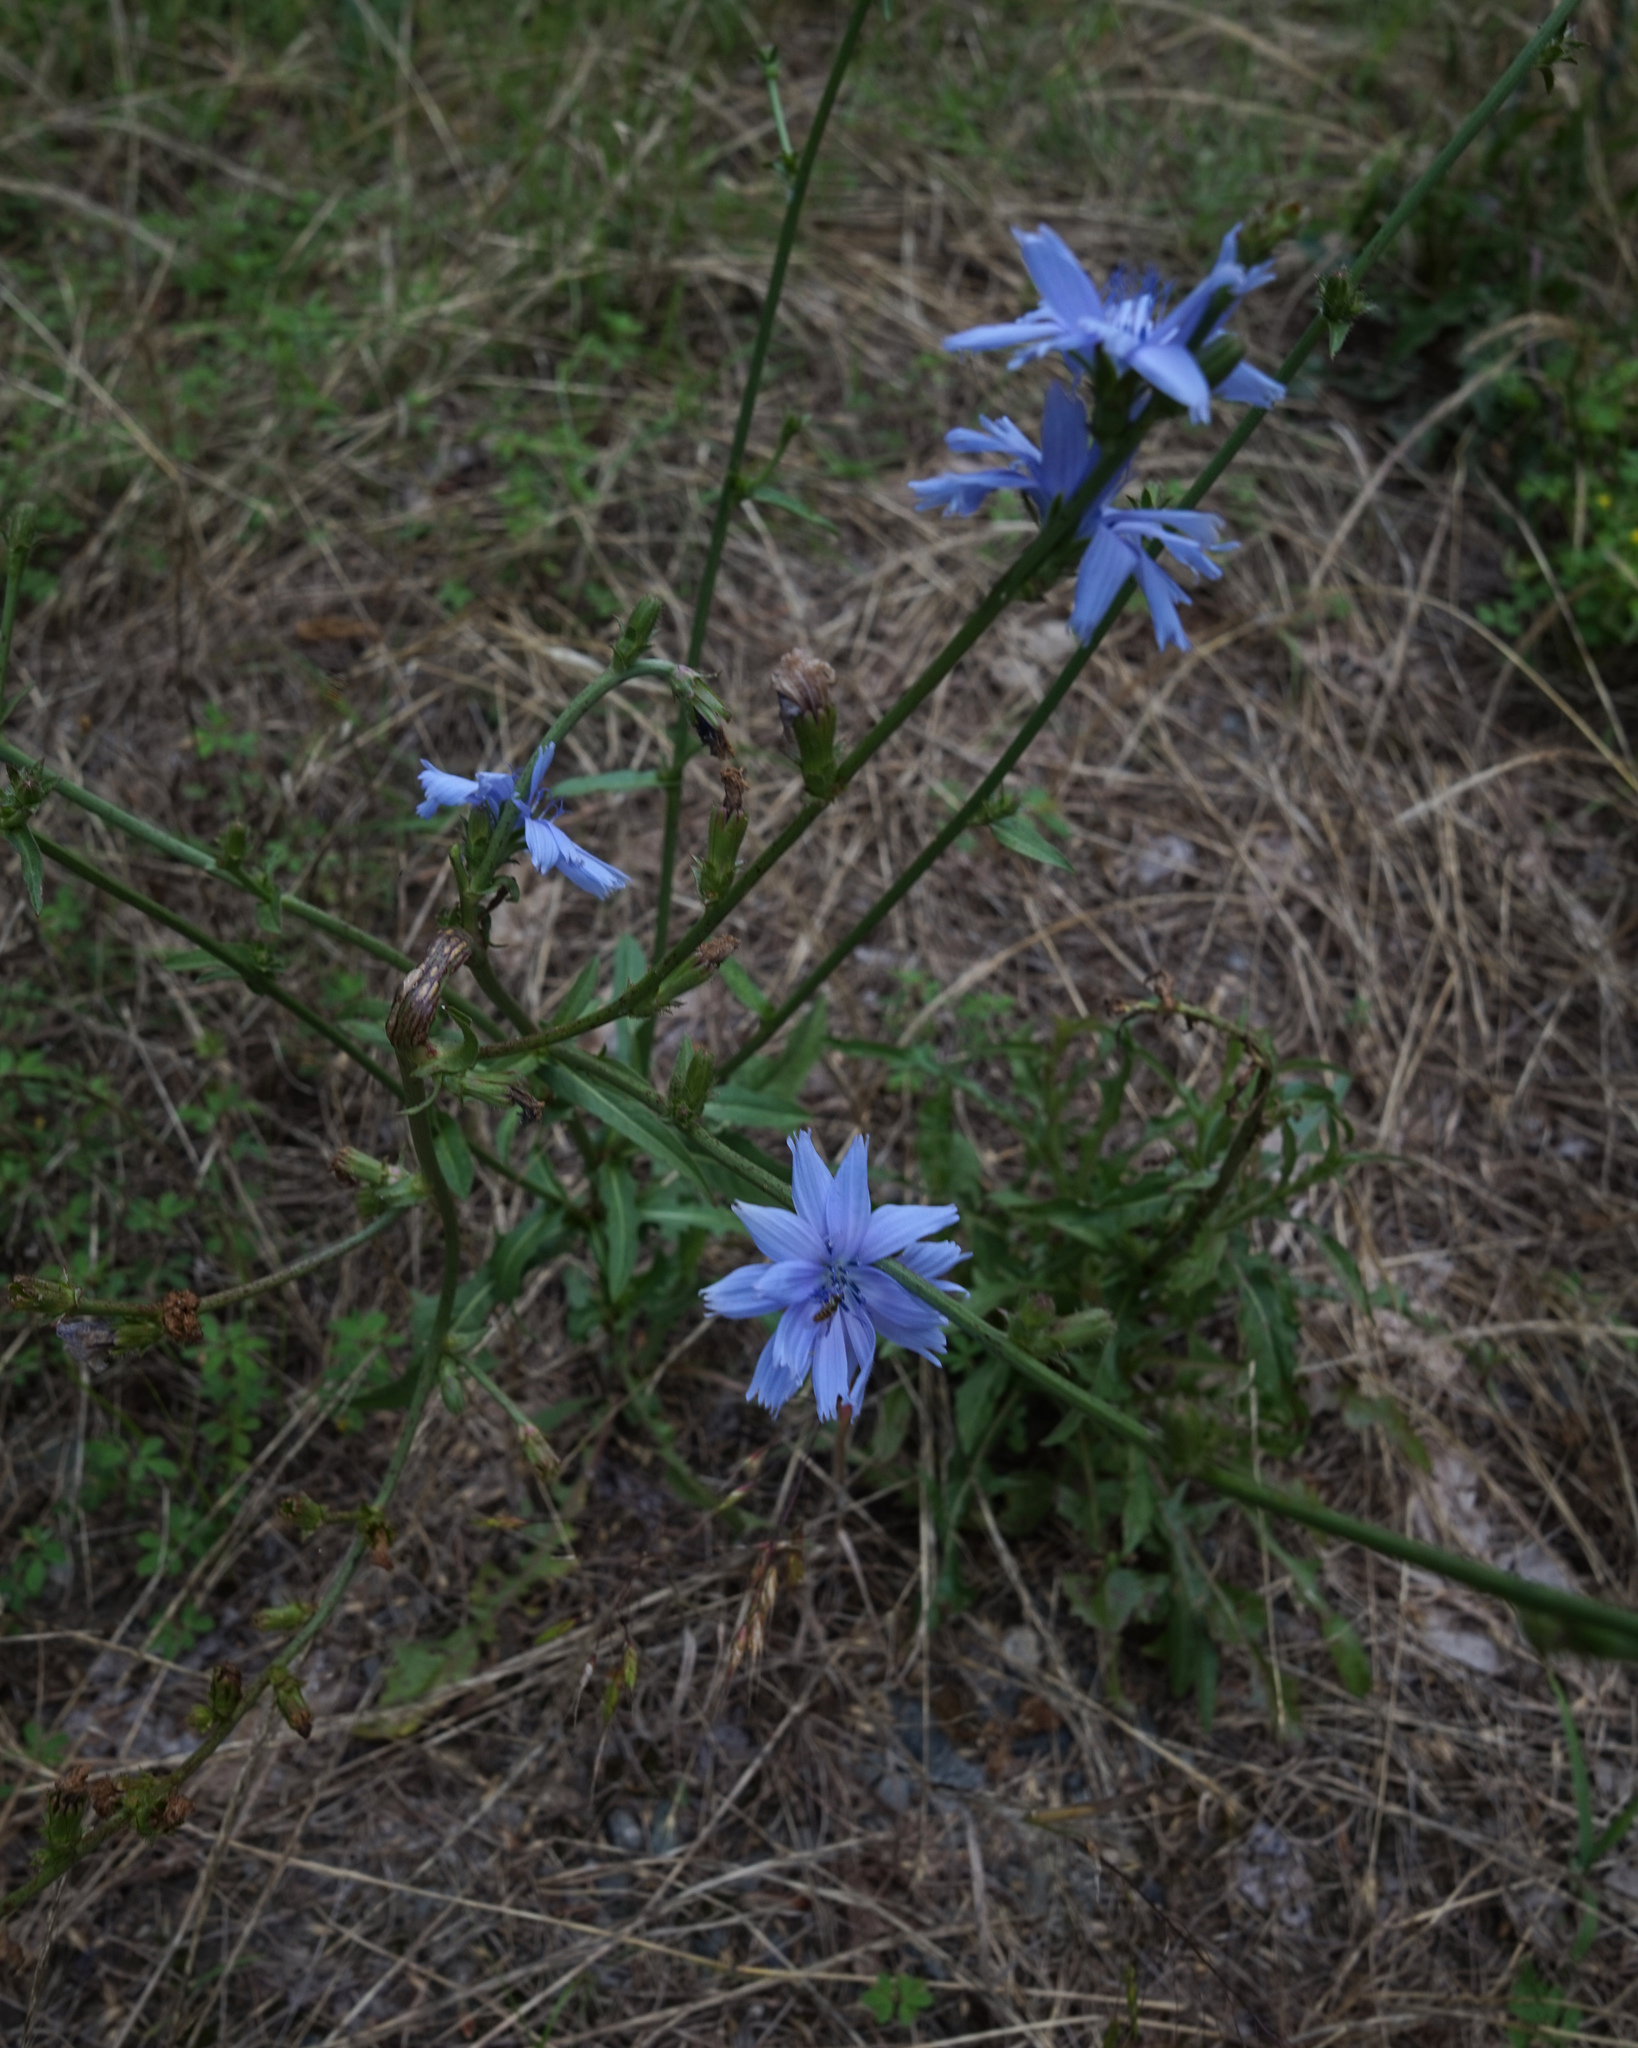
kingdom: Plantae
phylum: Tracheophyta
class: Magnoliopsida
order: Asterales
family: Asteraceae
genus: Cichorium
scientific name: Cichorium intybus
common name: Chicory
